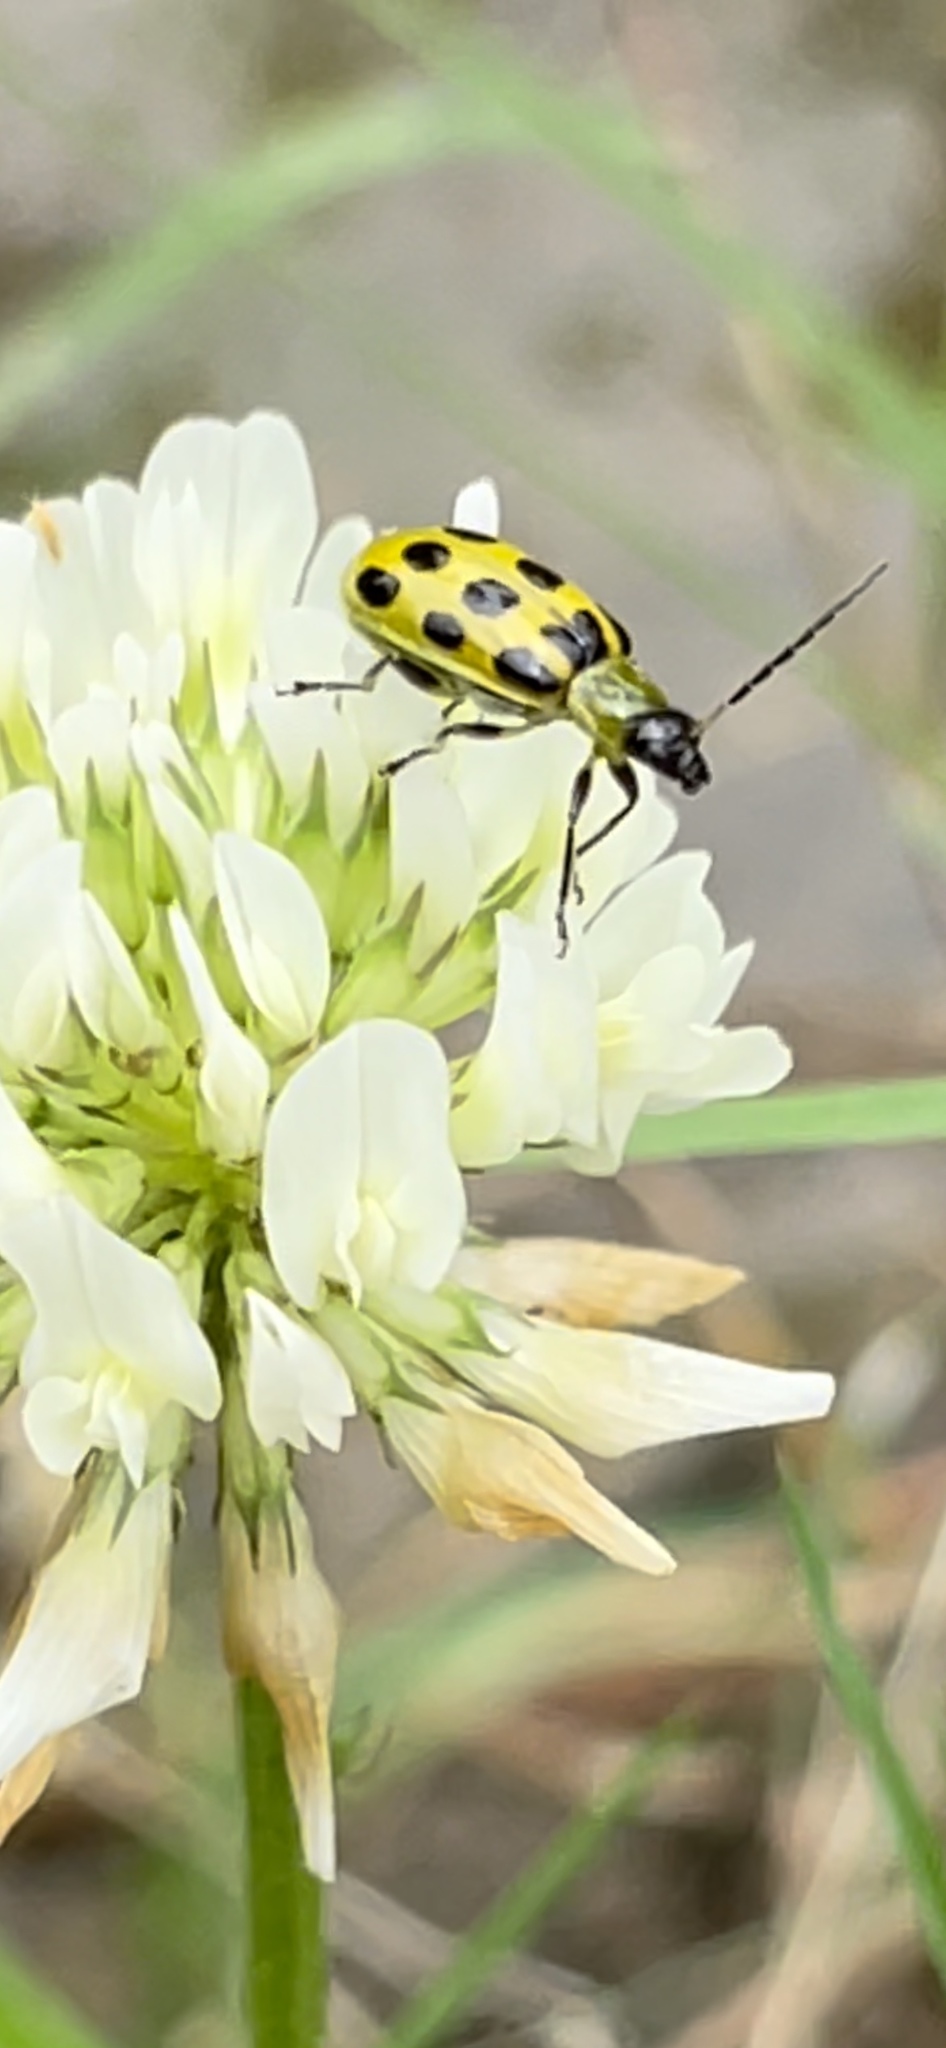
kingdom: Animalia
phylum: Arthropoda
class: Insecta
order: Coleoptera
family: Chrysomelidae
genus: Diabrotica
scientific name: Diabrotica undecimpunctata
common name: Spotted cucumber beetle
